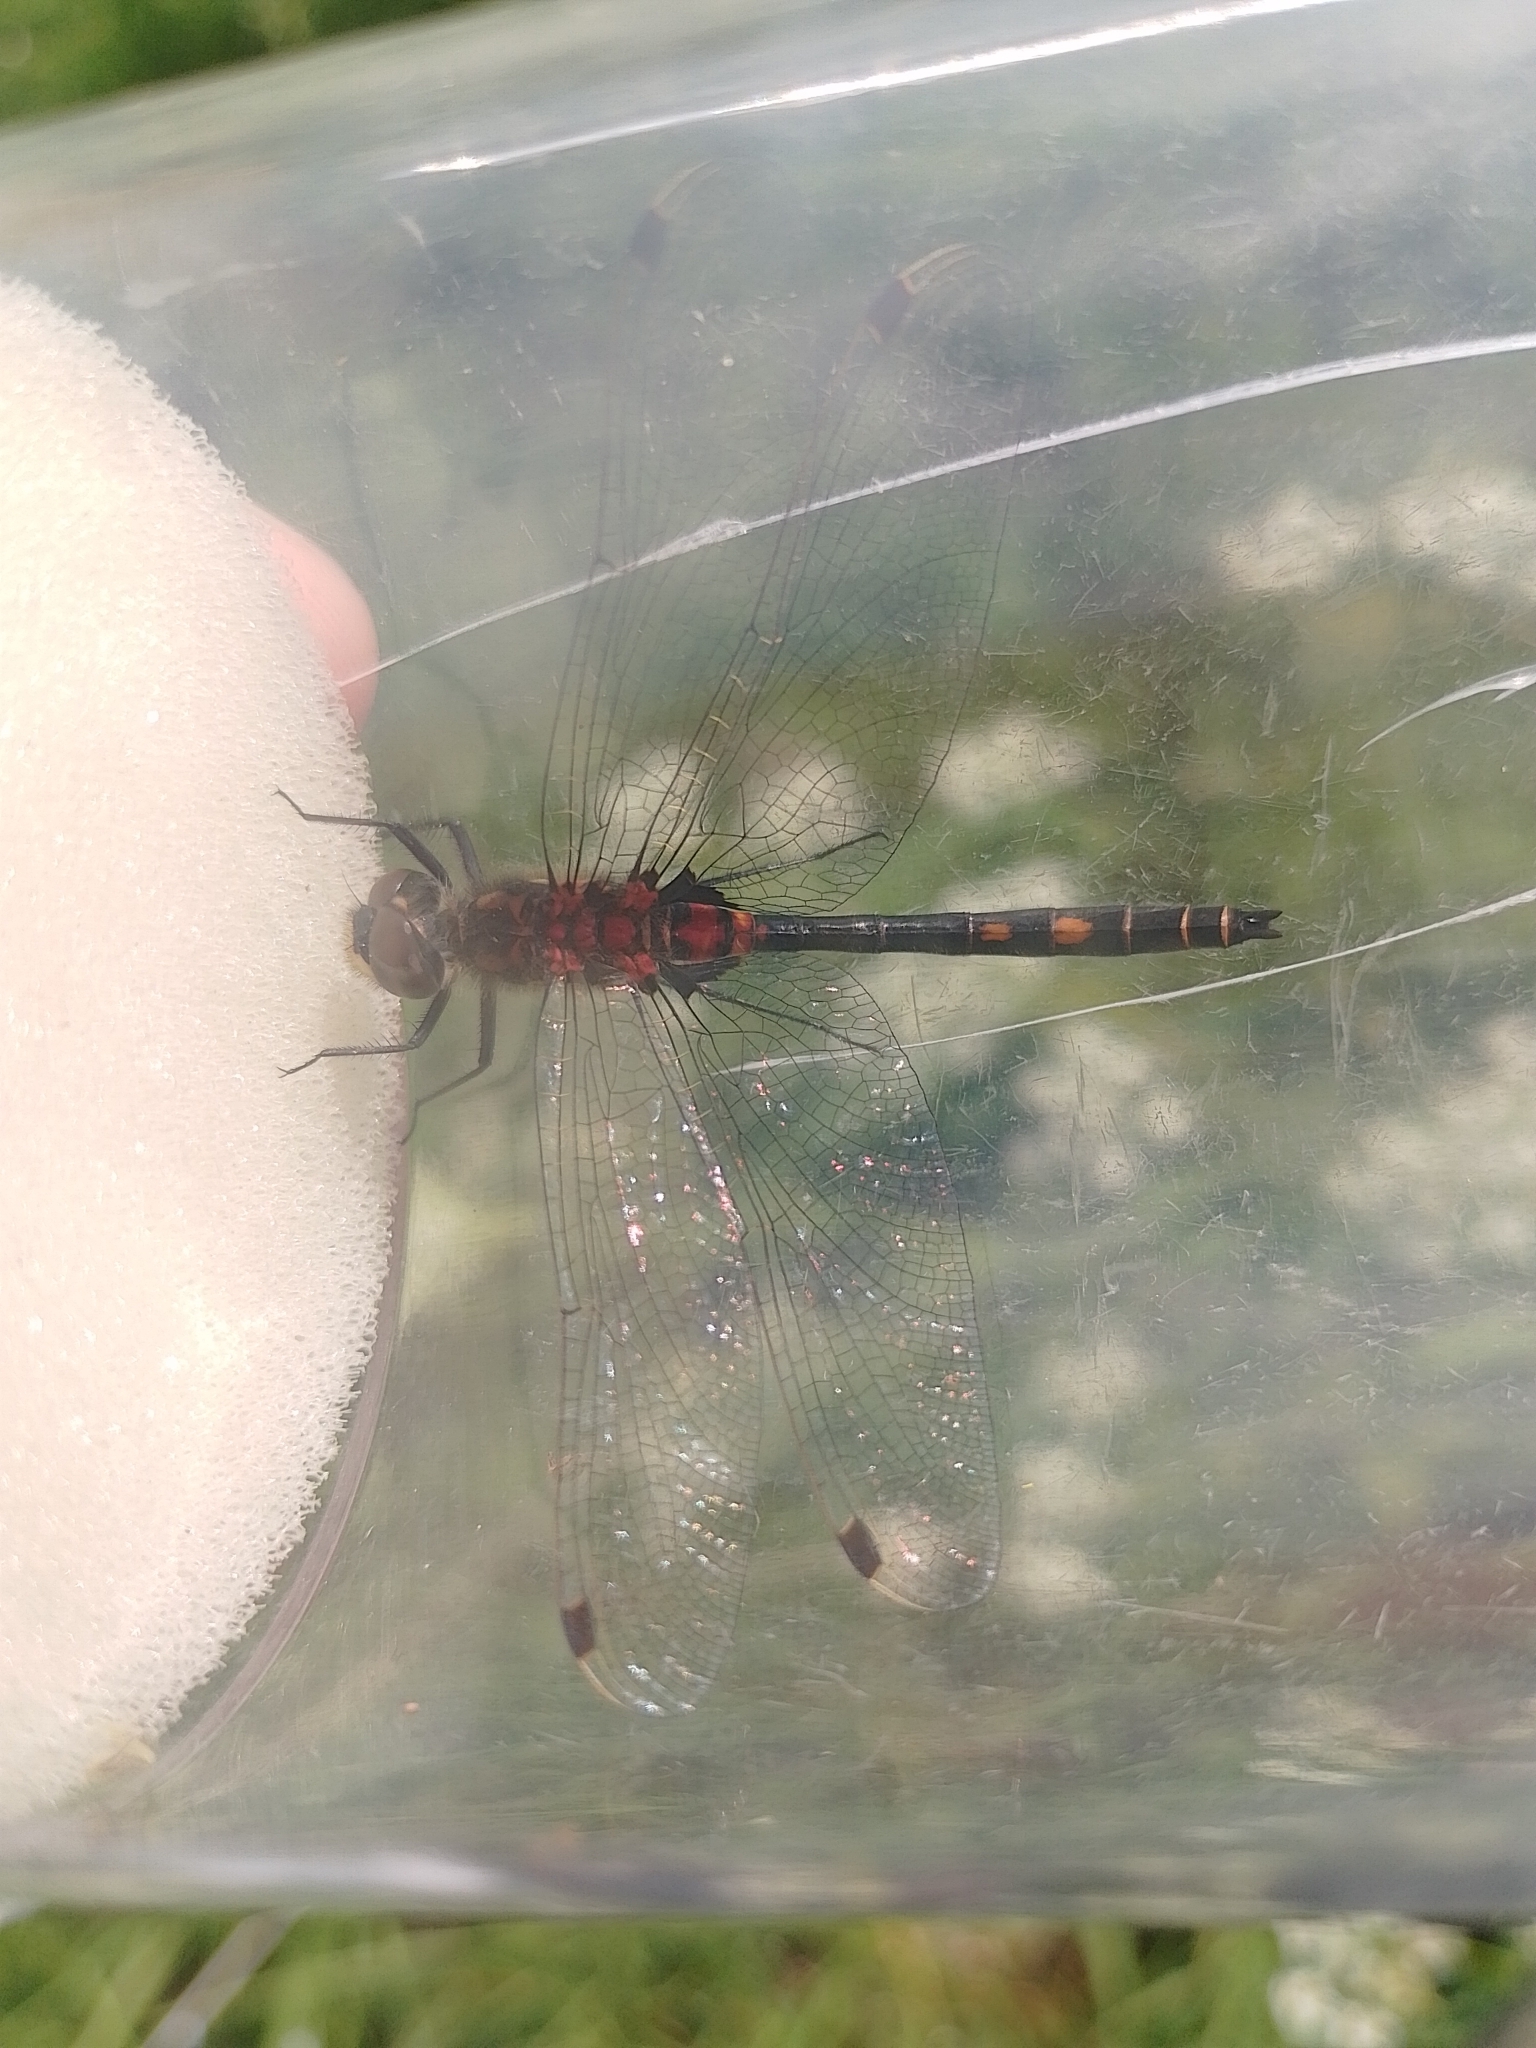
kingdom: Animalia
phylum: Arthropoda
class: Insecta
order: Odonata
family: Libellulidae
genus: Leucorrhinia
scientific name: Leucorrhinia dubia
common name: White-faced darter
